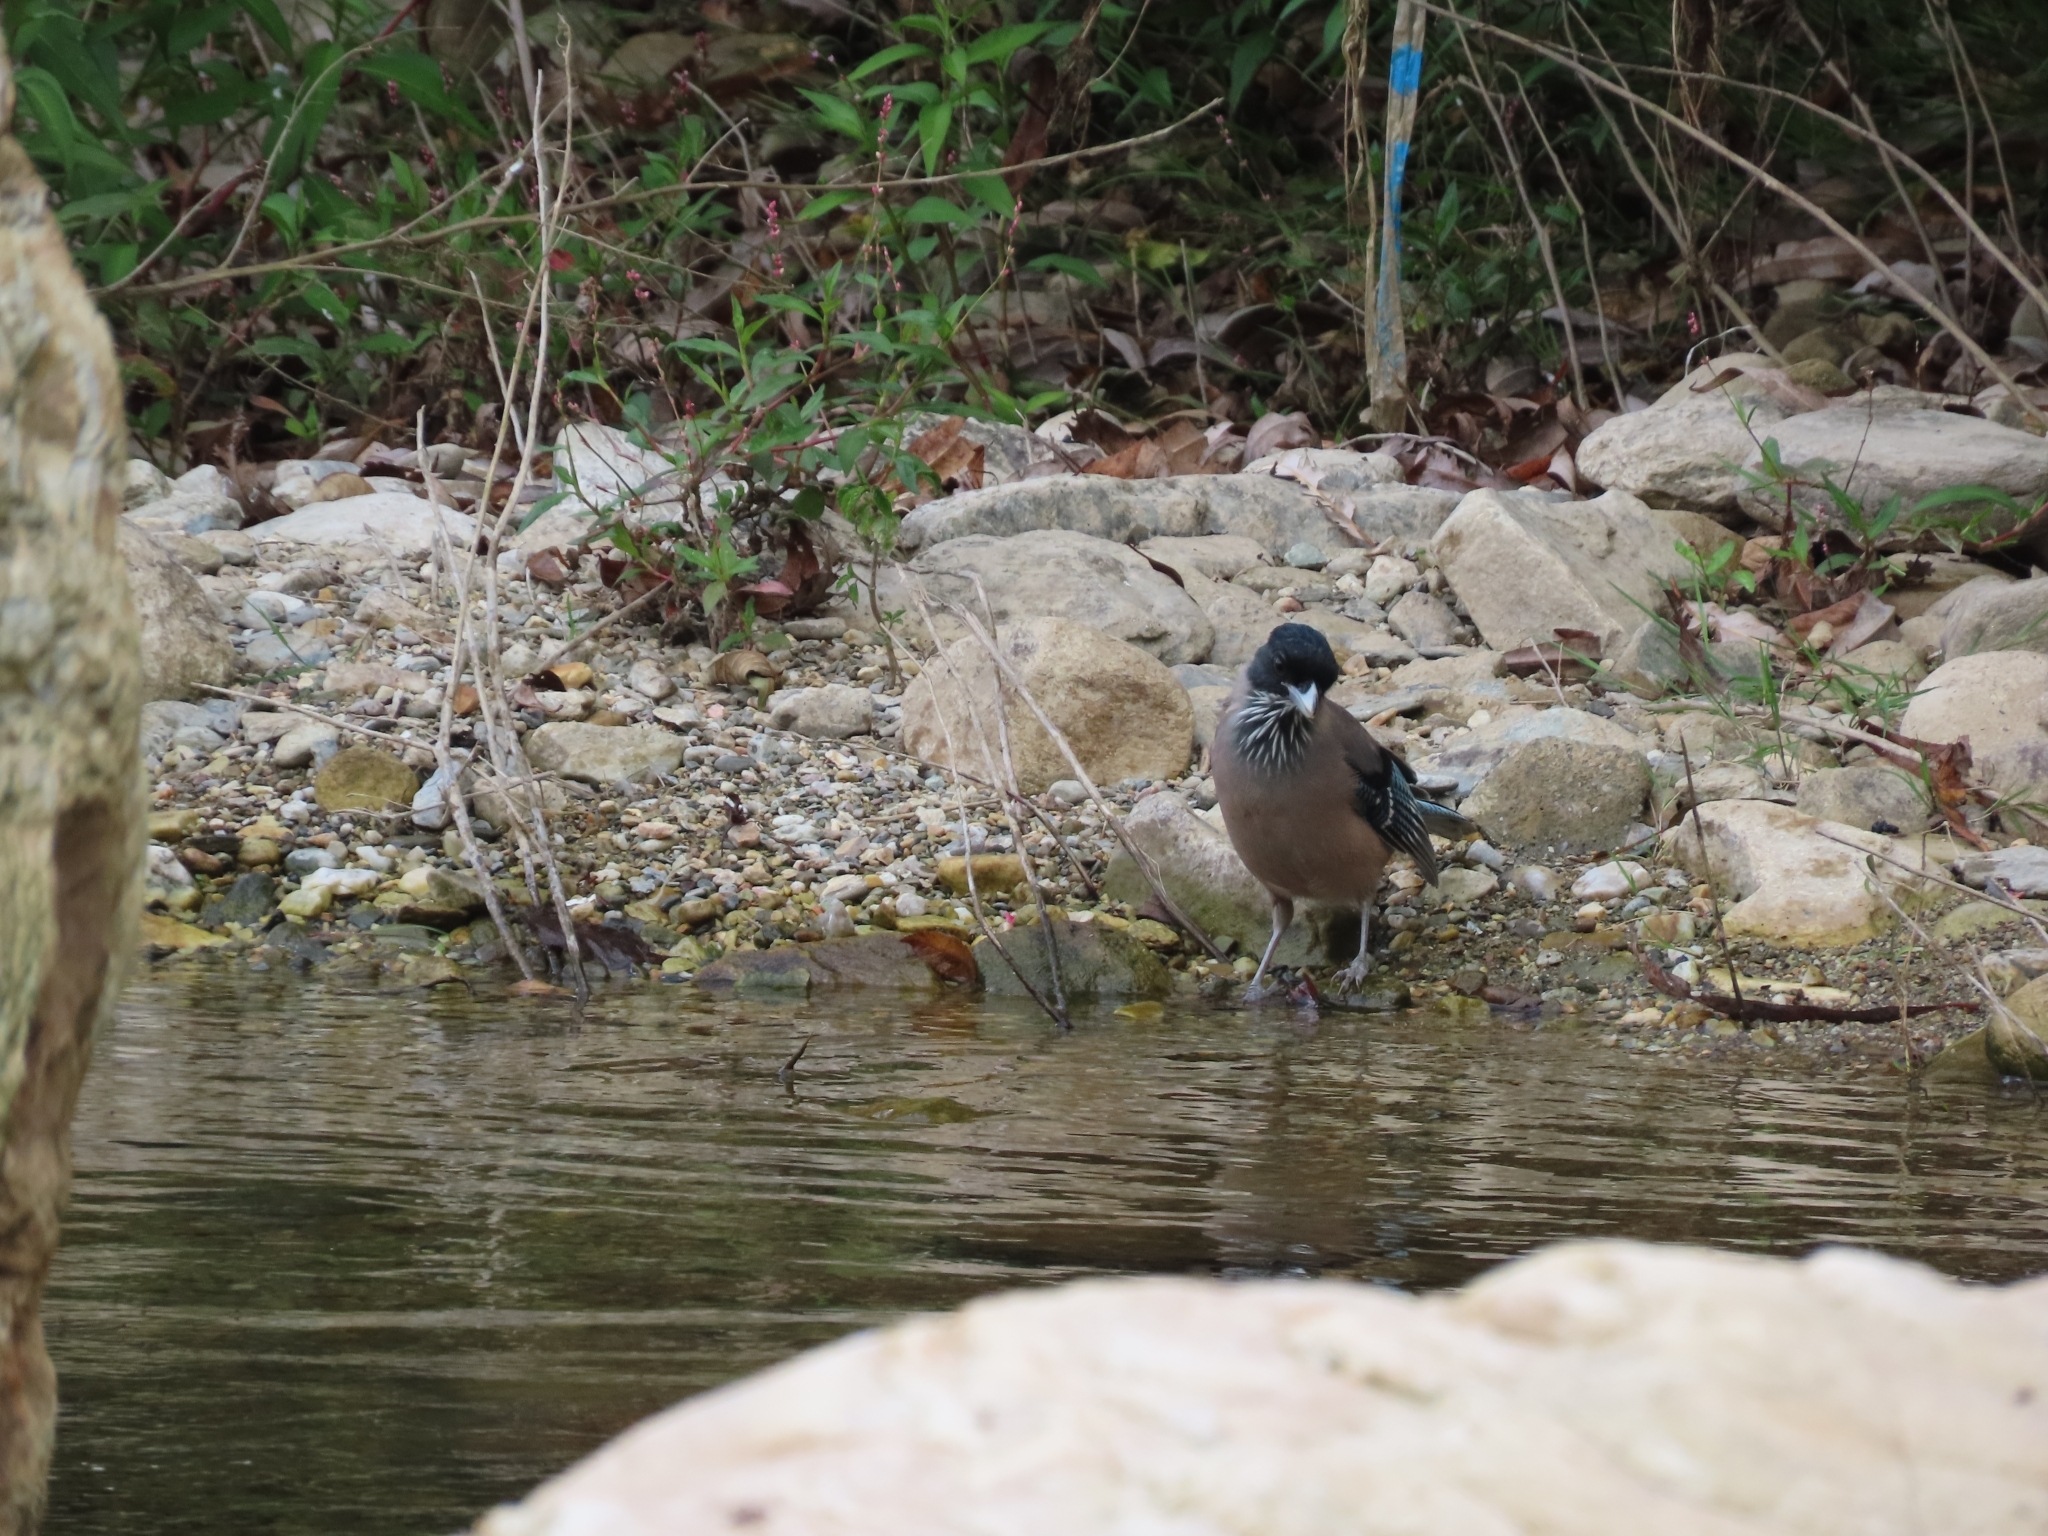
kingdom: Animalia
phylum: Chordata
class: Aves
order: Passeriformes
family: Corvidae
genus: Garrulus
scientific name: Garrulus lanceolatus
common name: Black-headed jay
